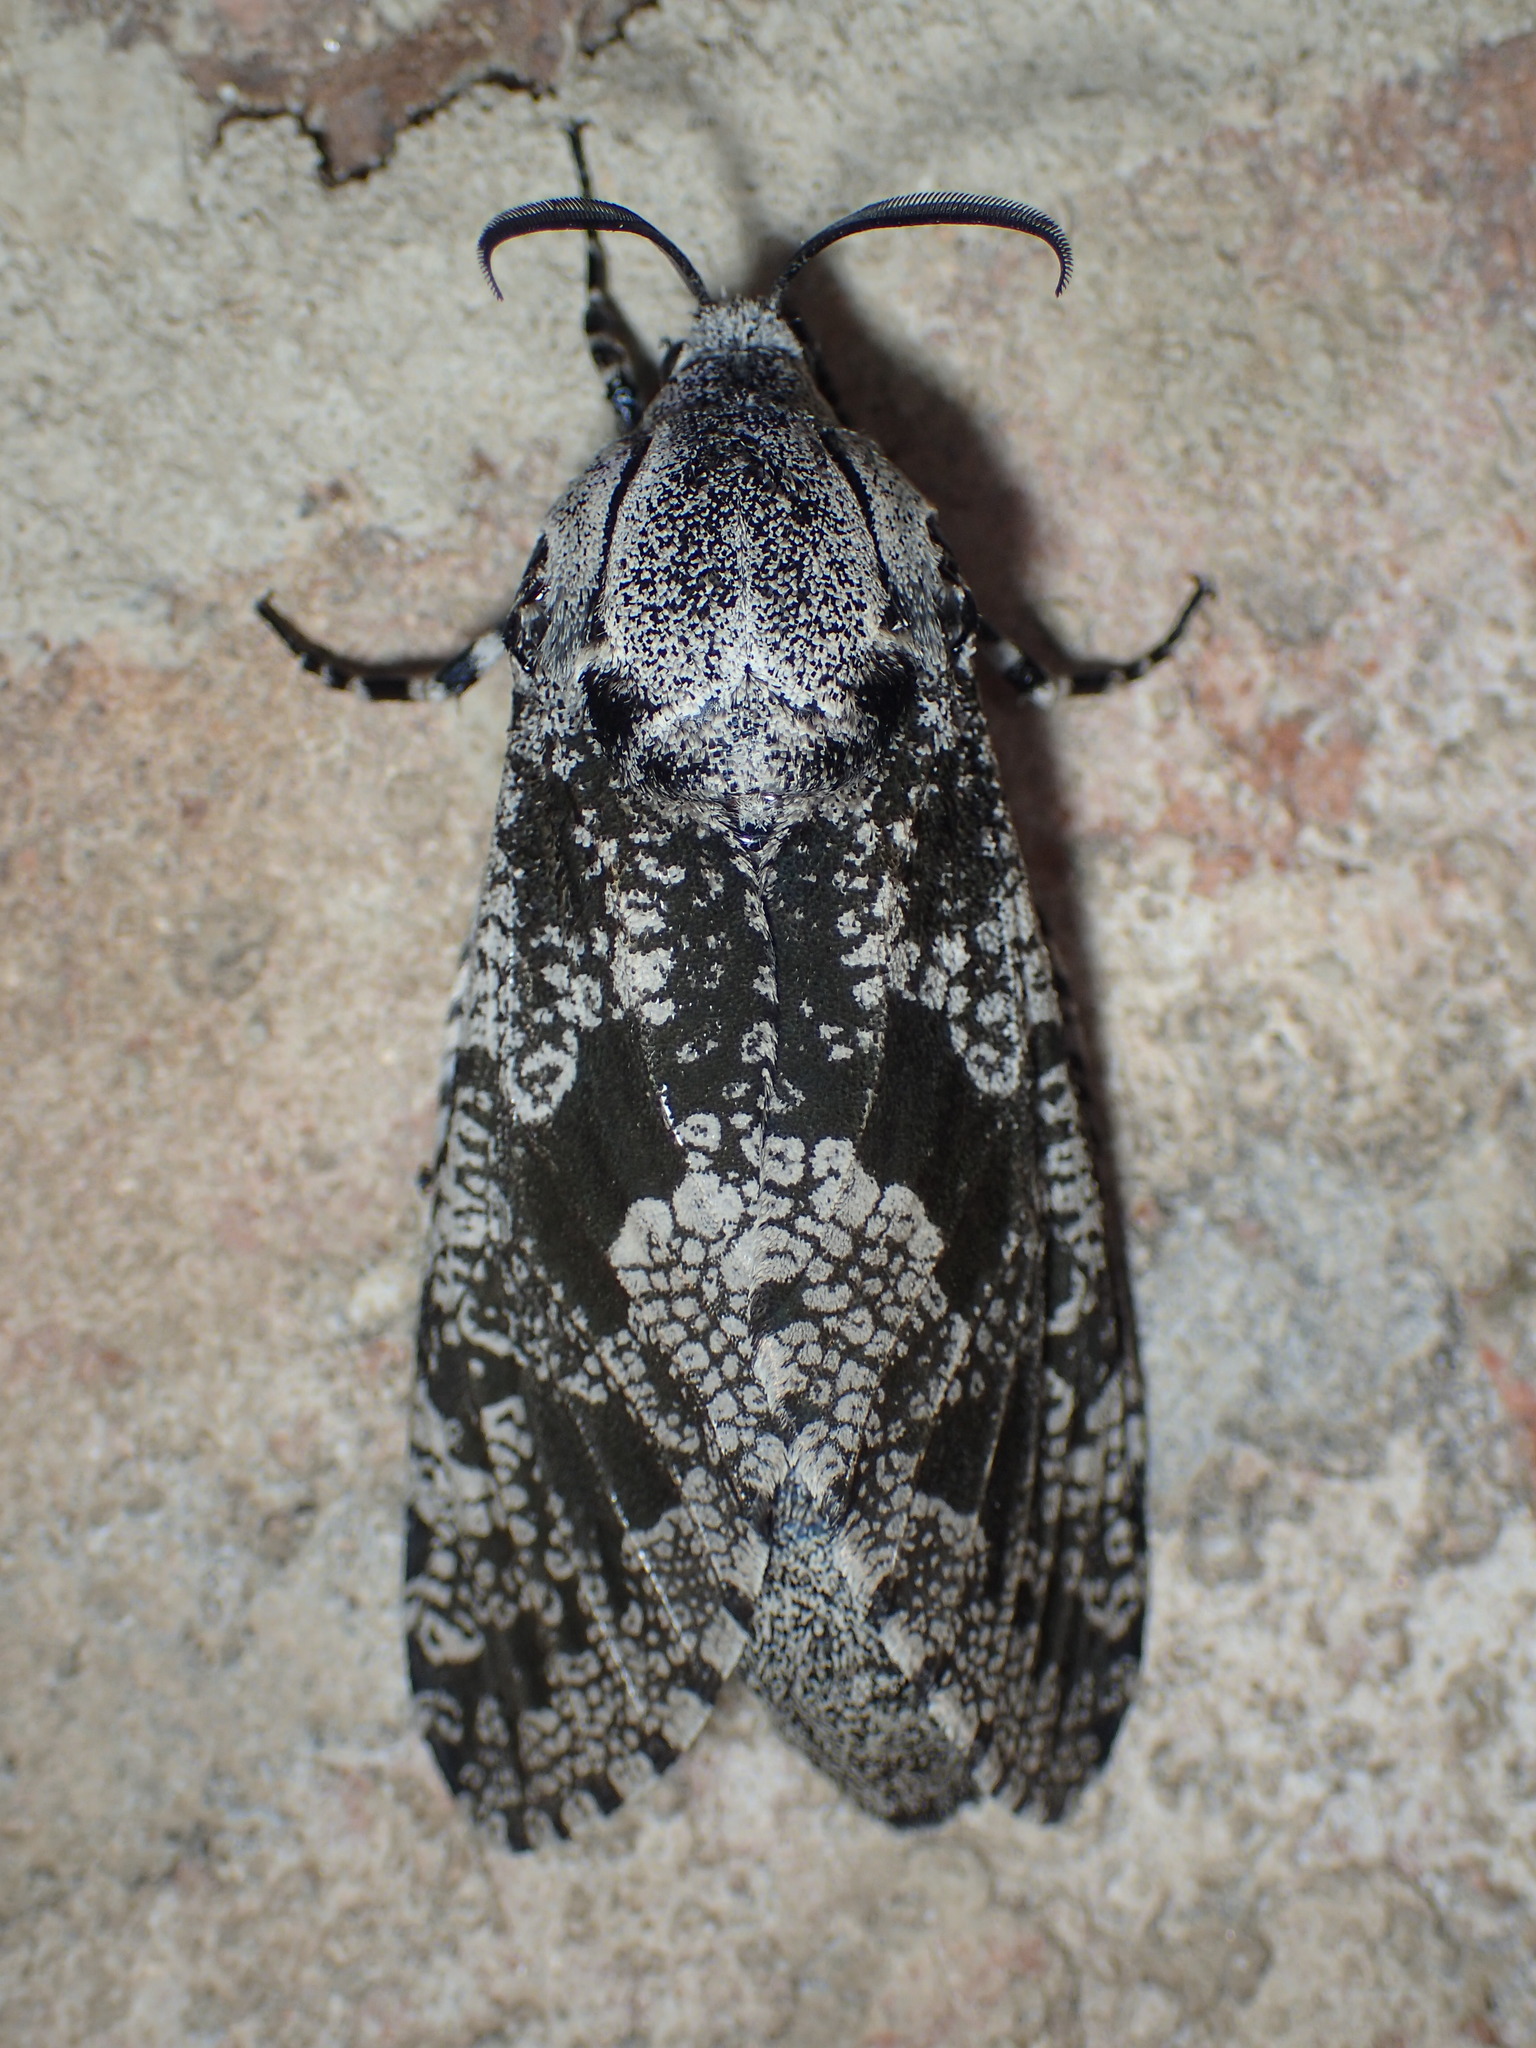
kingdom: Animalia
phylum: Arthropoda
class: Insecta
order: Lepidoptera
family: Cossidae
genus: Prionoxystus
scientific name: Prionoxystus robiniae
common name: Carpenterworm
